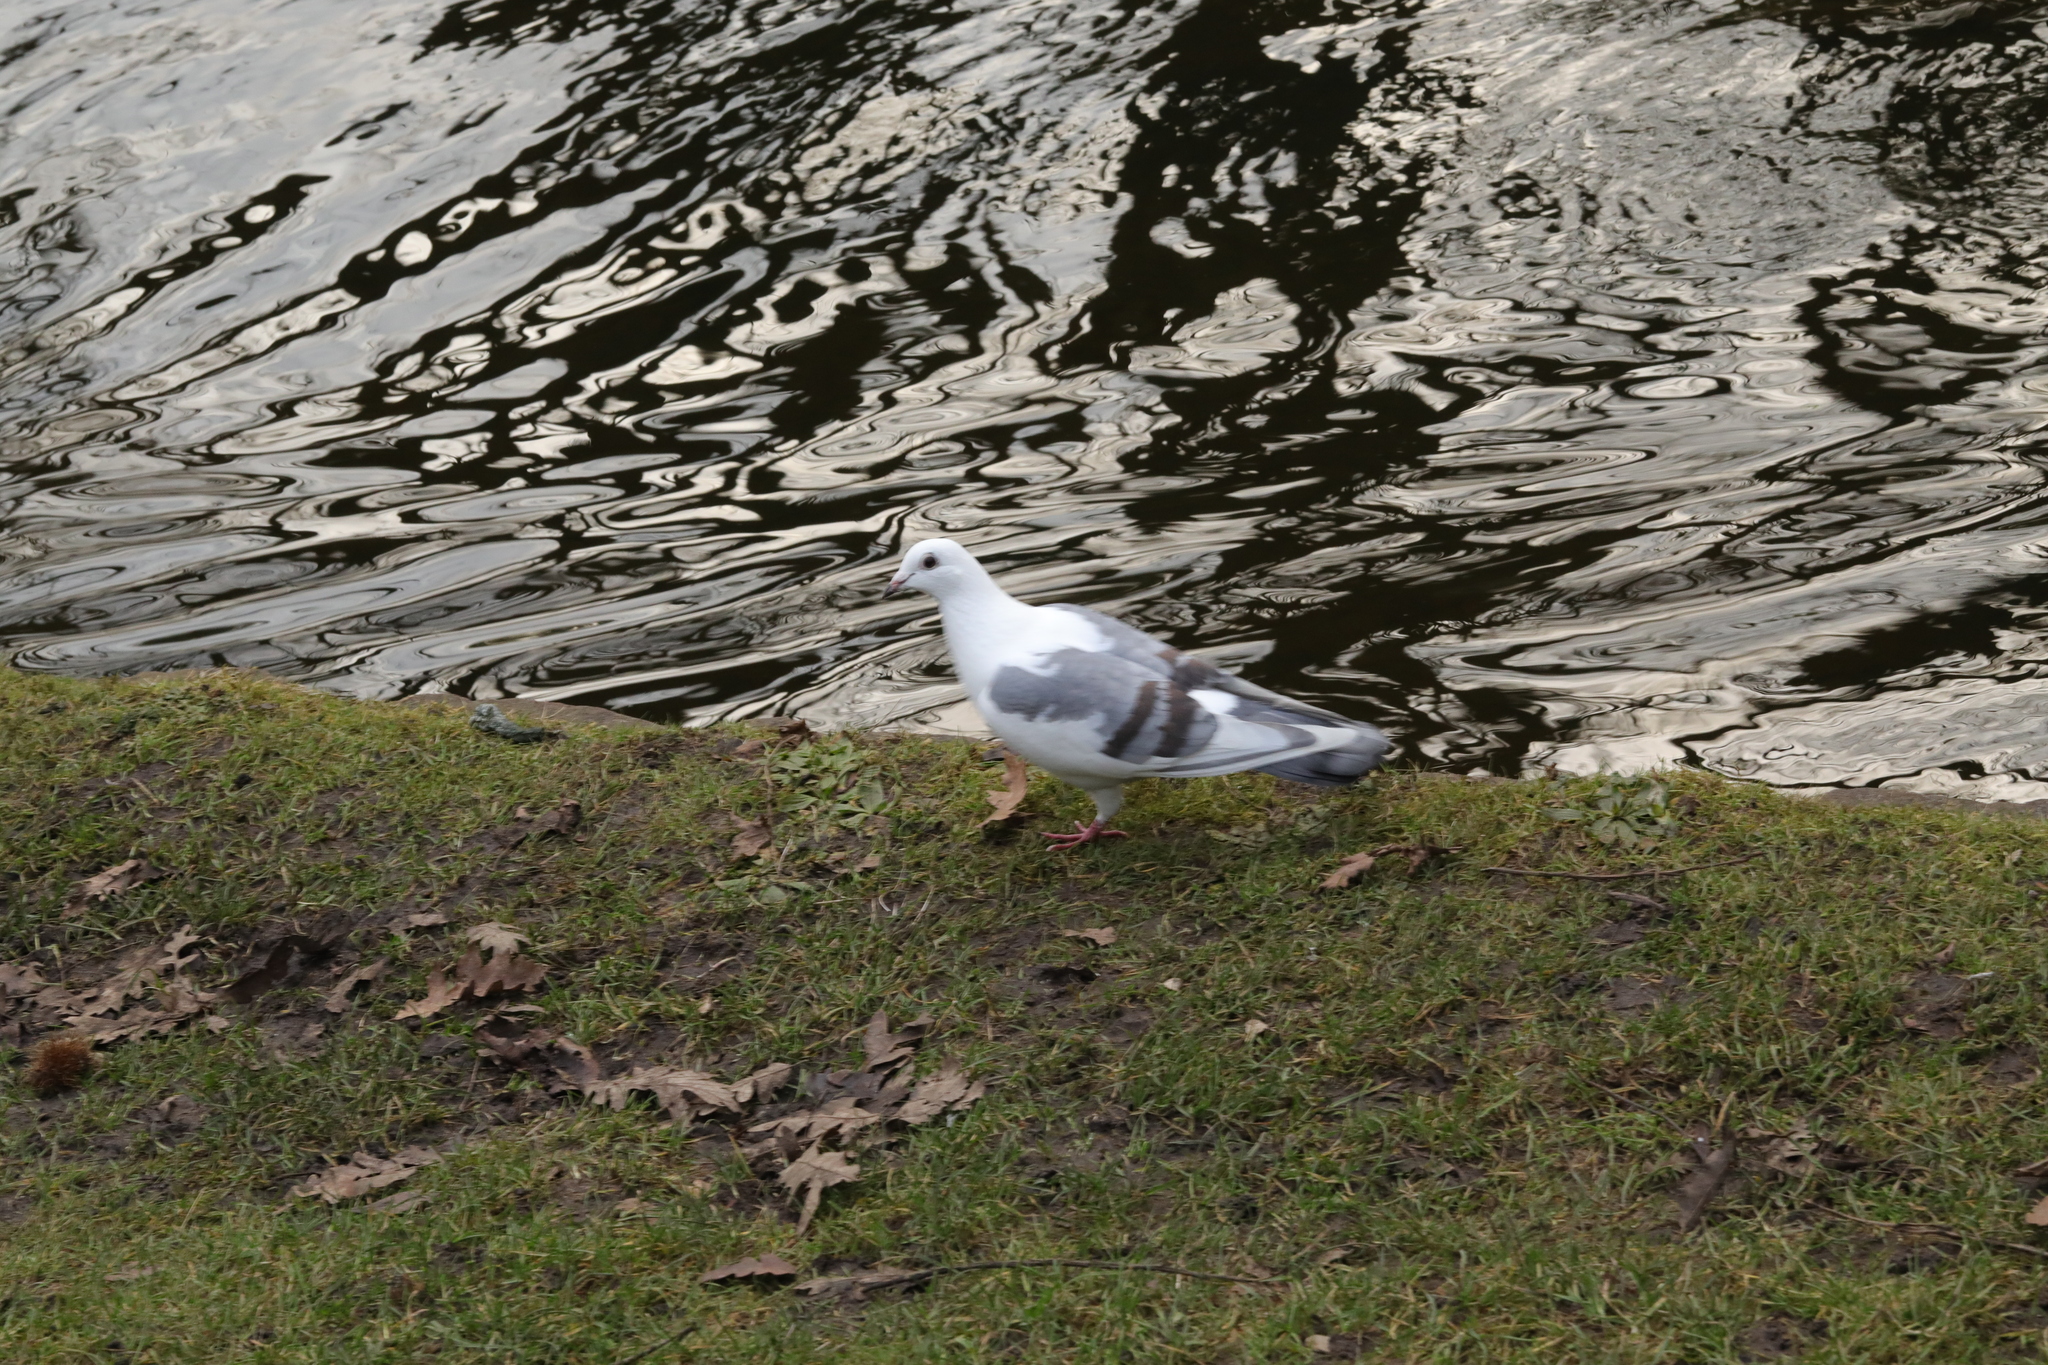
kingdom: Animalia
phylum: Chordata
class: Aves
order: Columbiformes
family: Columbidae
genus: Columba
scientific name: Columba livia
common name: Rock pigeon
